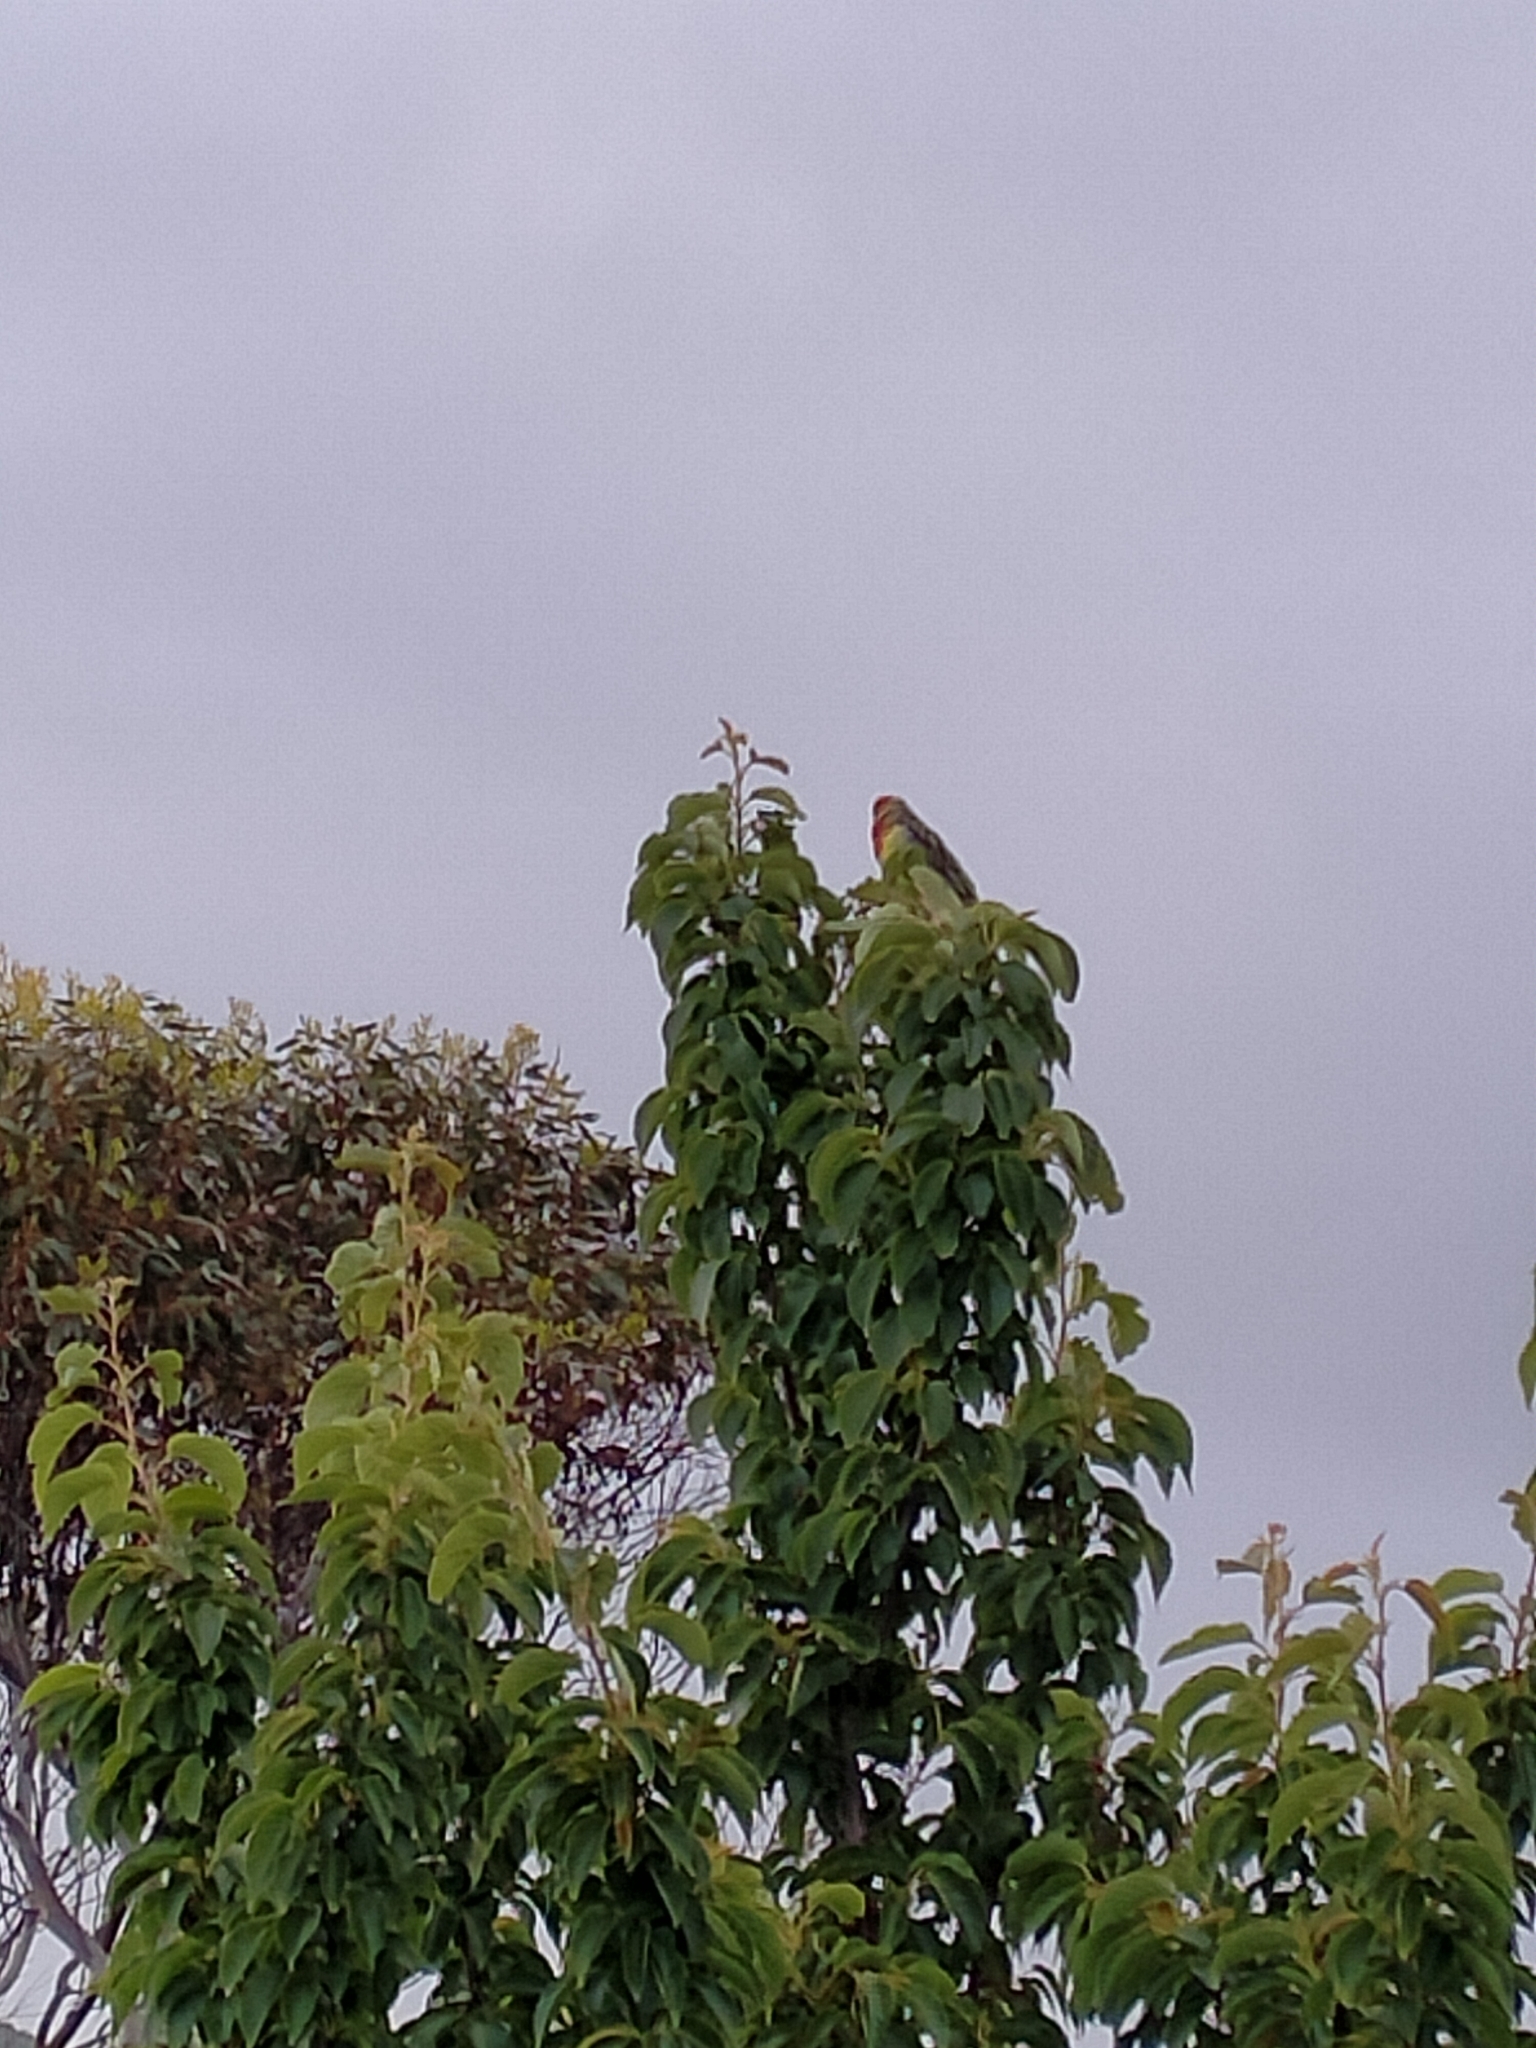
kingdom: Animalia
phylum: Chordata
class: Aves
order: Psittaciformes
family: Psittacidae
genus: Platycercus
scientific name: Platycercus eximius
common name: Eastern rosella
